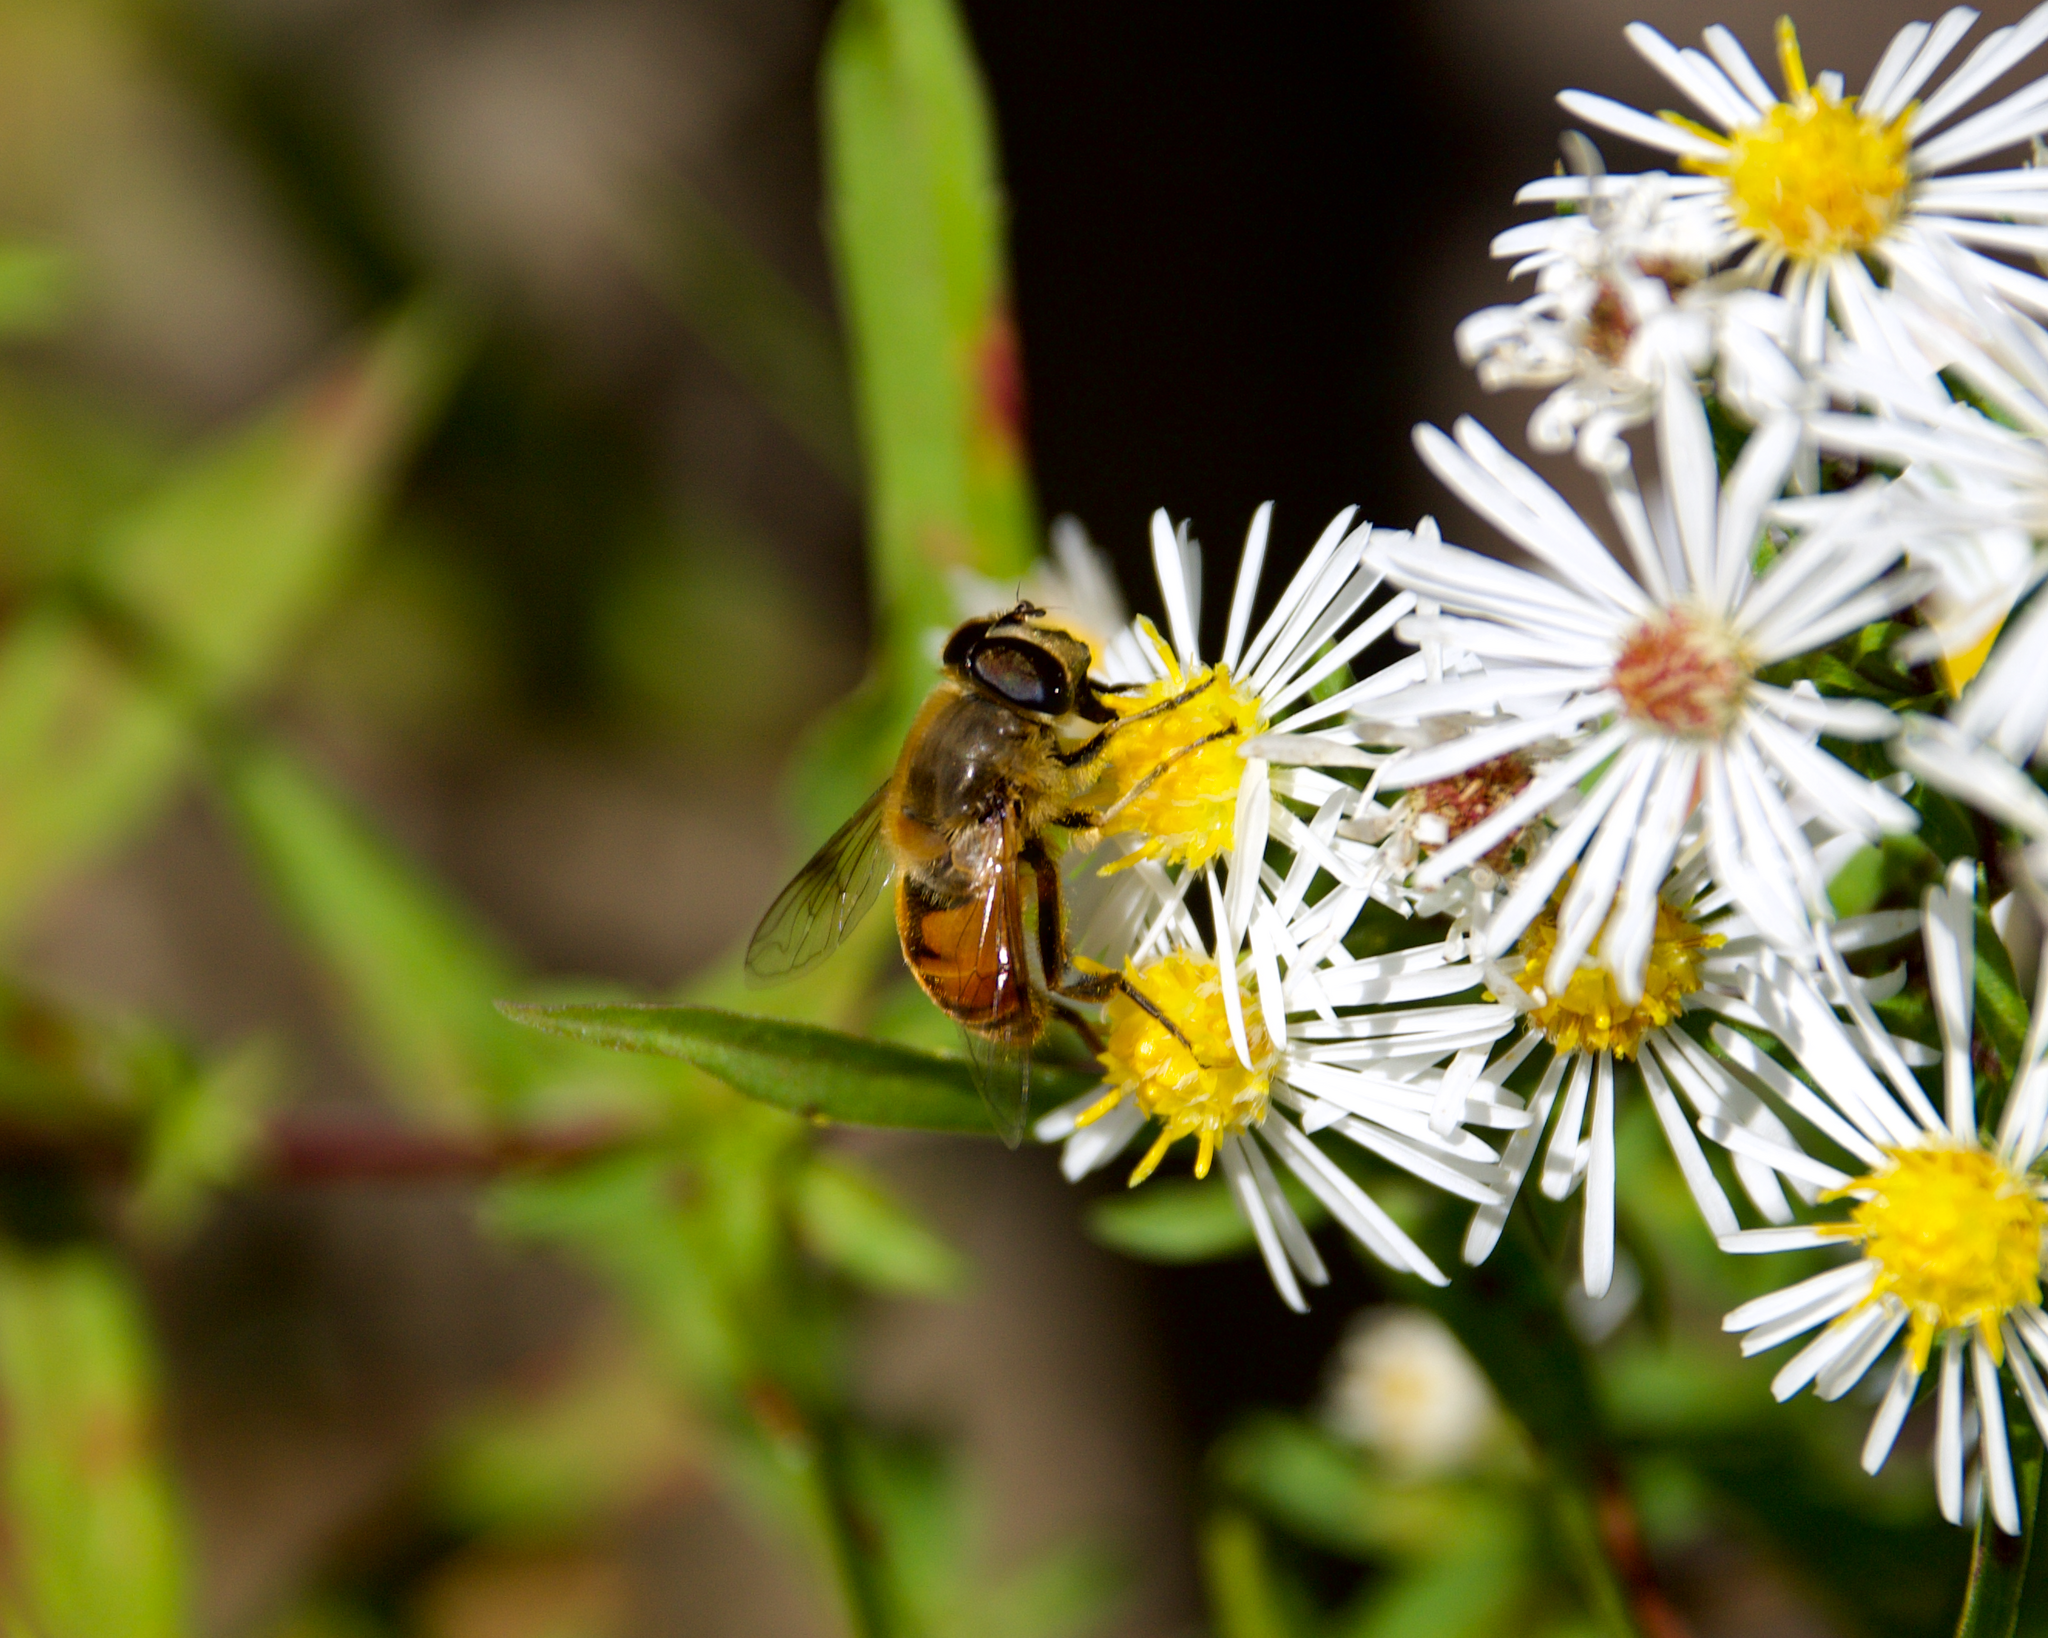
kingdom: Animalia
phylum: Arthropoda
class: Insecta
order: Diptera
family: Syrphidae
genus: Eristalis
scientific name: Eristalis tenax
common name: Drone fly
